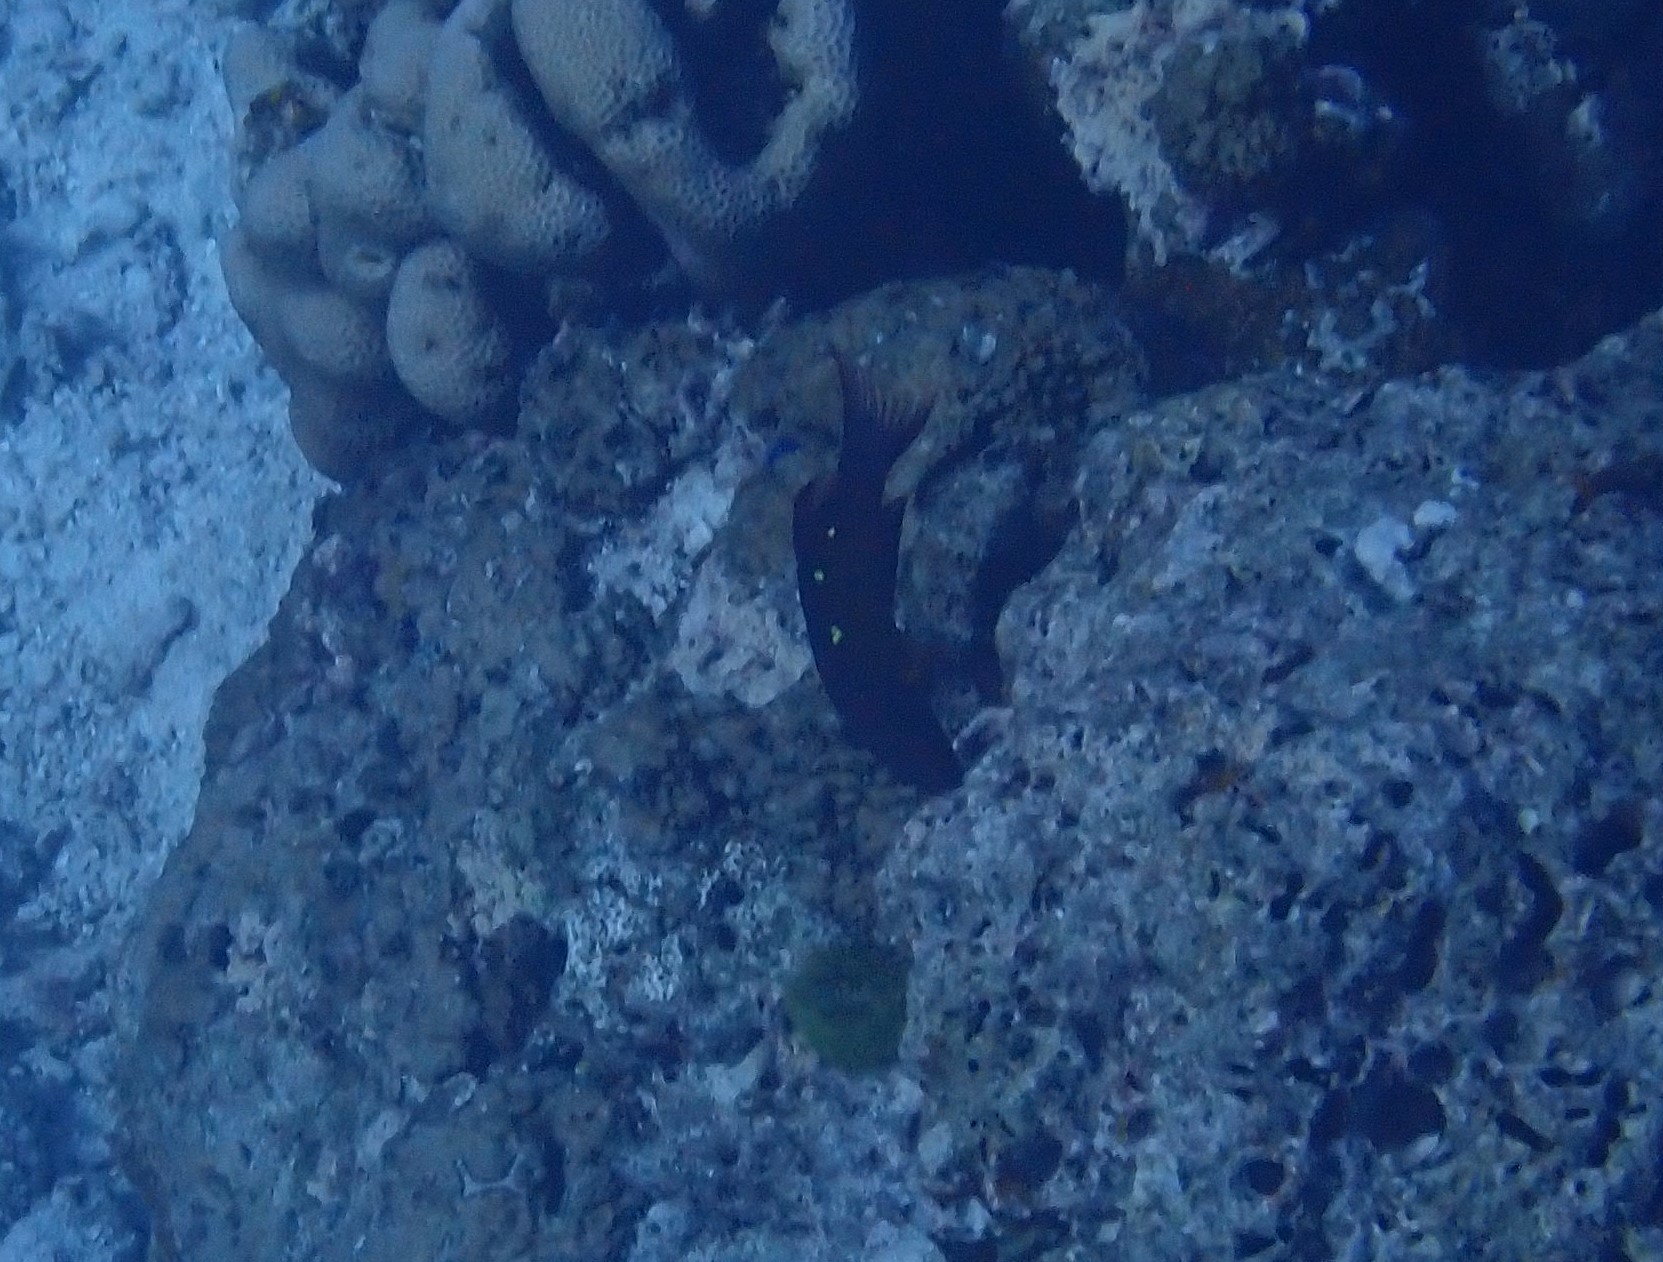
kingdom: Animalia
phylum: Chordata
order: Perciformes
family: Labridae
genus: Bodianus
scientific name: Bodianus diana
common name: Diana's hogfish
